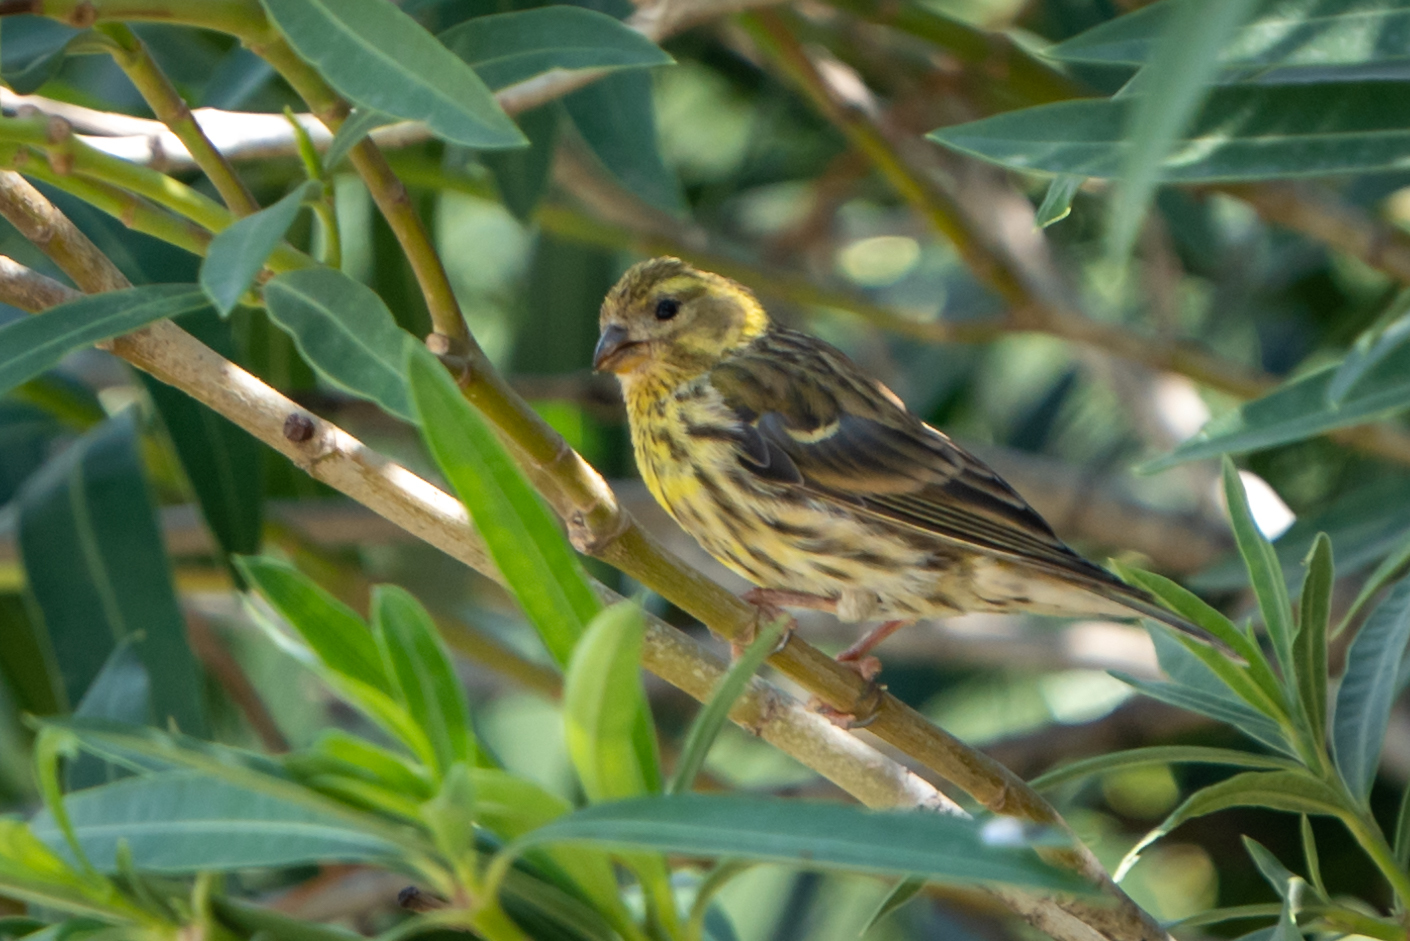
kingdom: Animalia
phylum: Chordata
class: Aves
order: Passeriformes
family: Fringillidae
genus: Serinus
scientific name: Serinus serinus
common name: European serin
